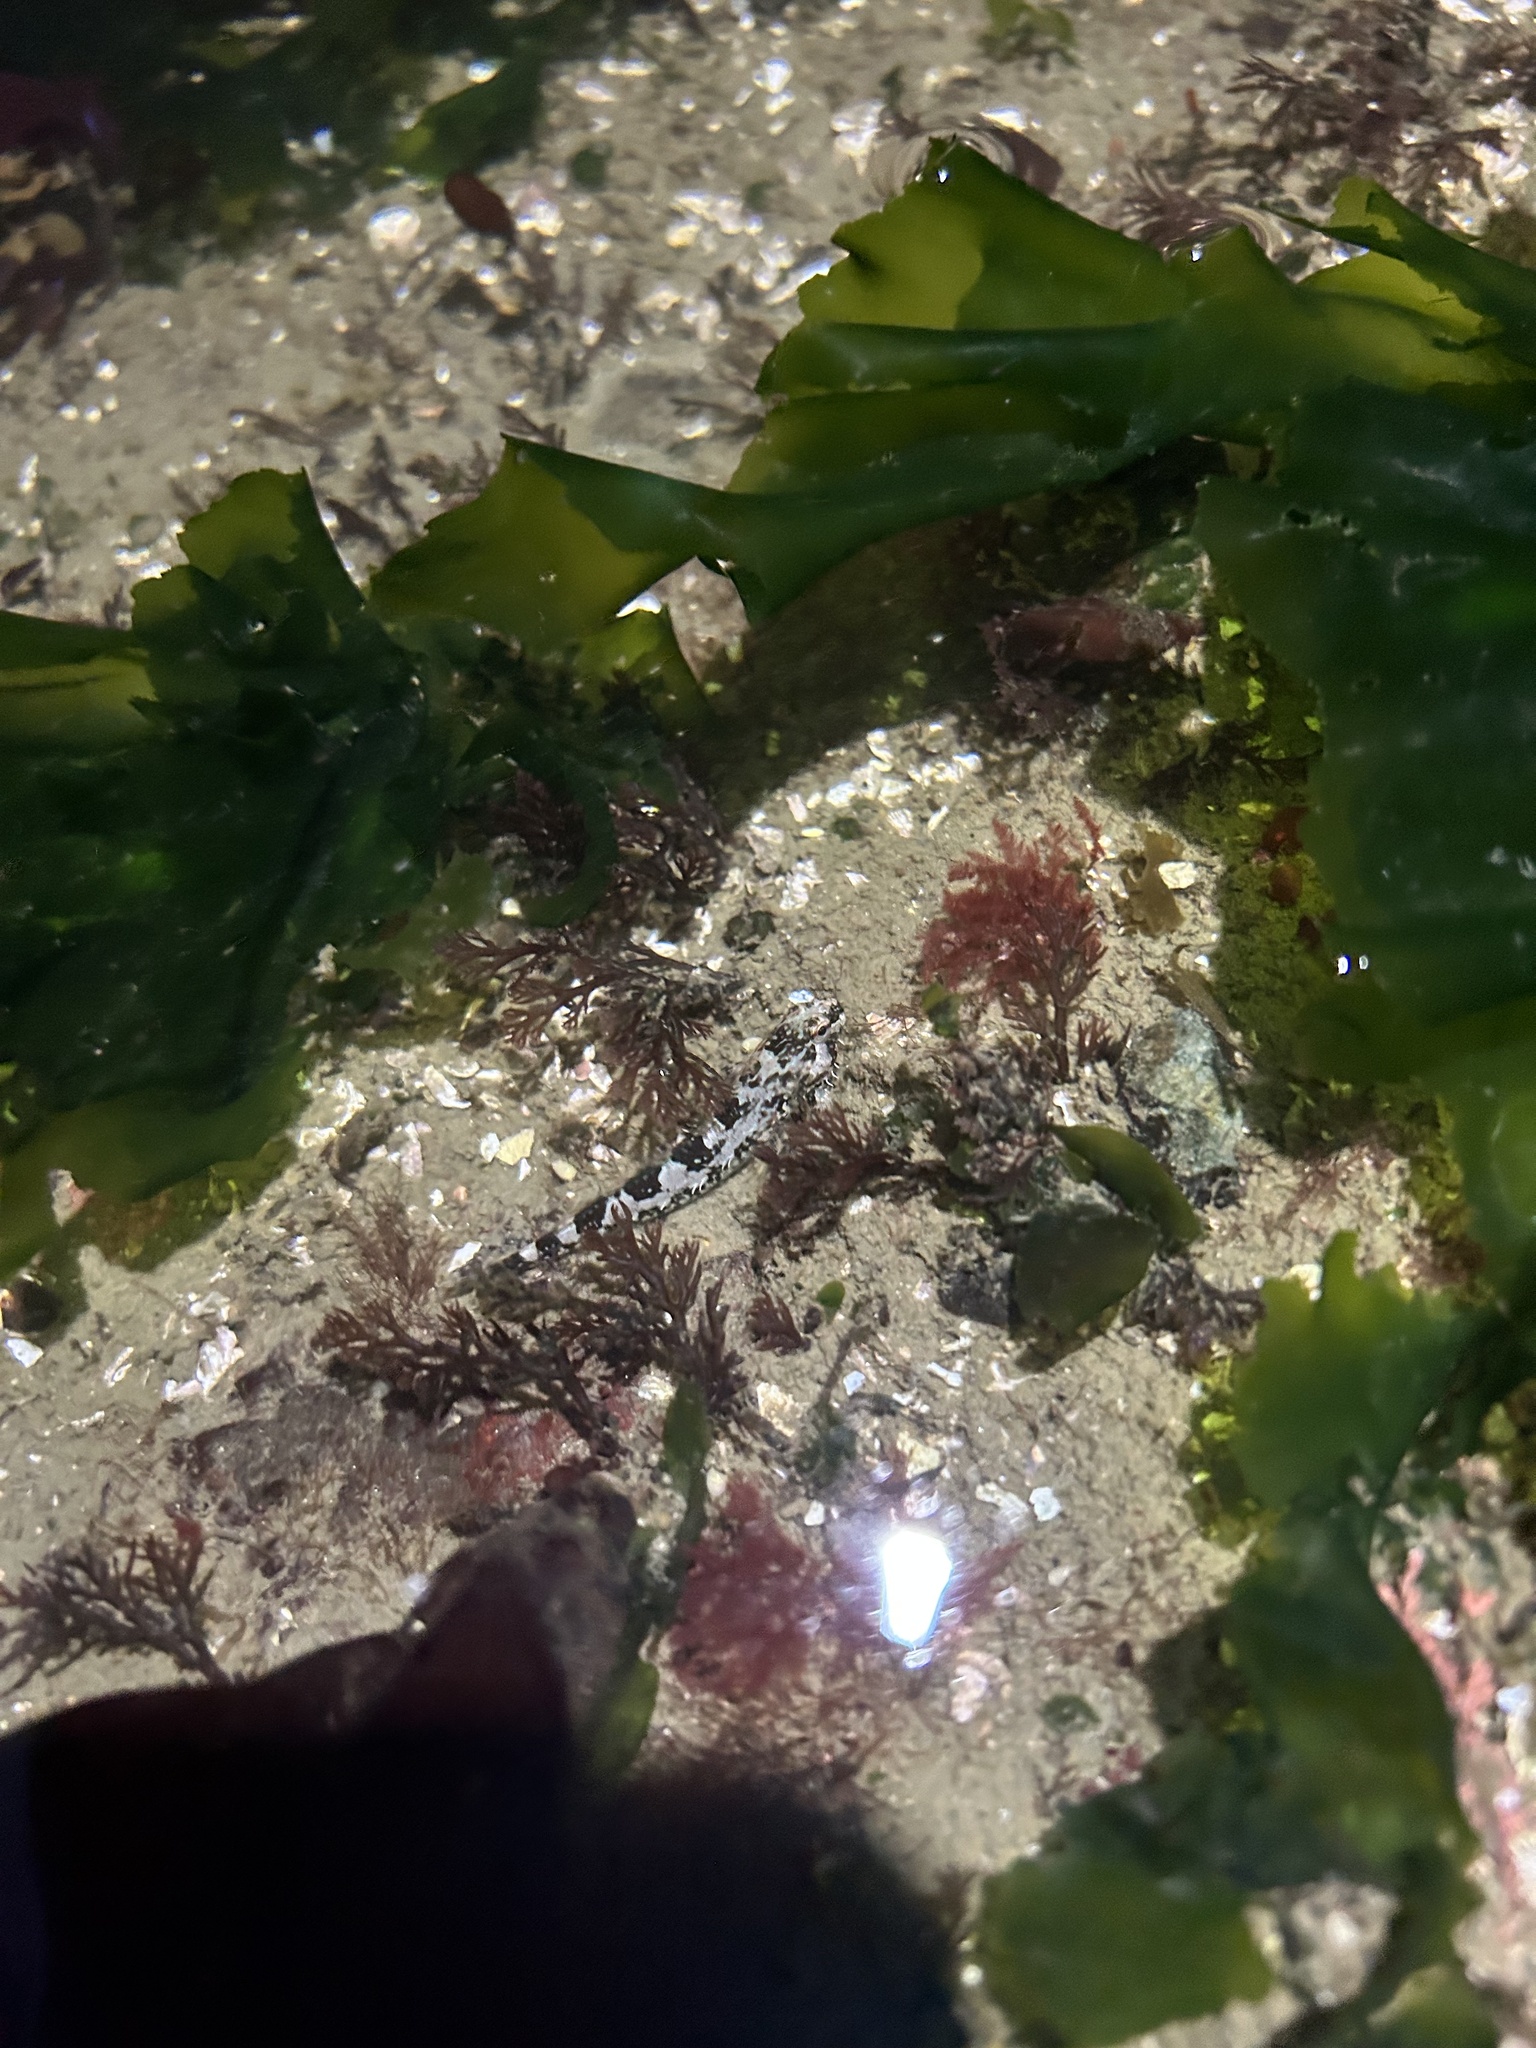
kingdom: Animalia
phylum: Chordata
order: Scorpaeniformes
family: Cottidae
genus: Oligocottus
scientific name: Oligocottus rimensis
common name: Saddleback sculpin
